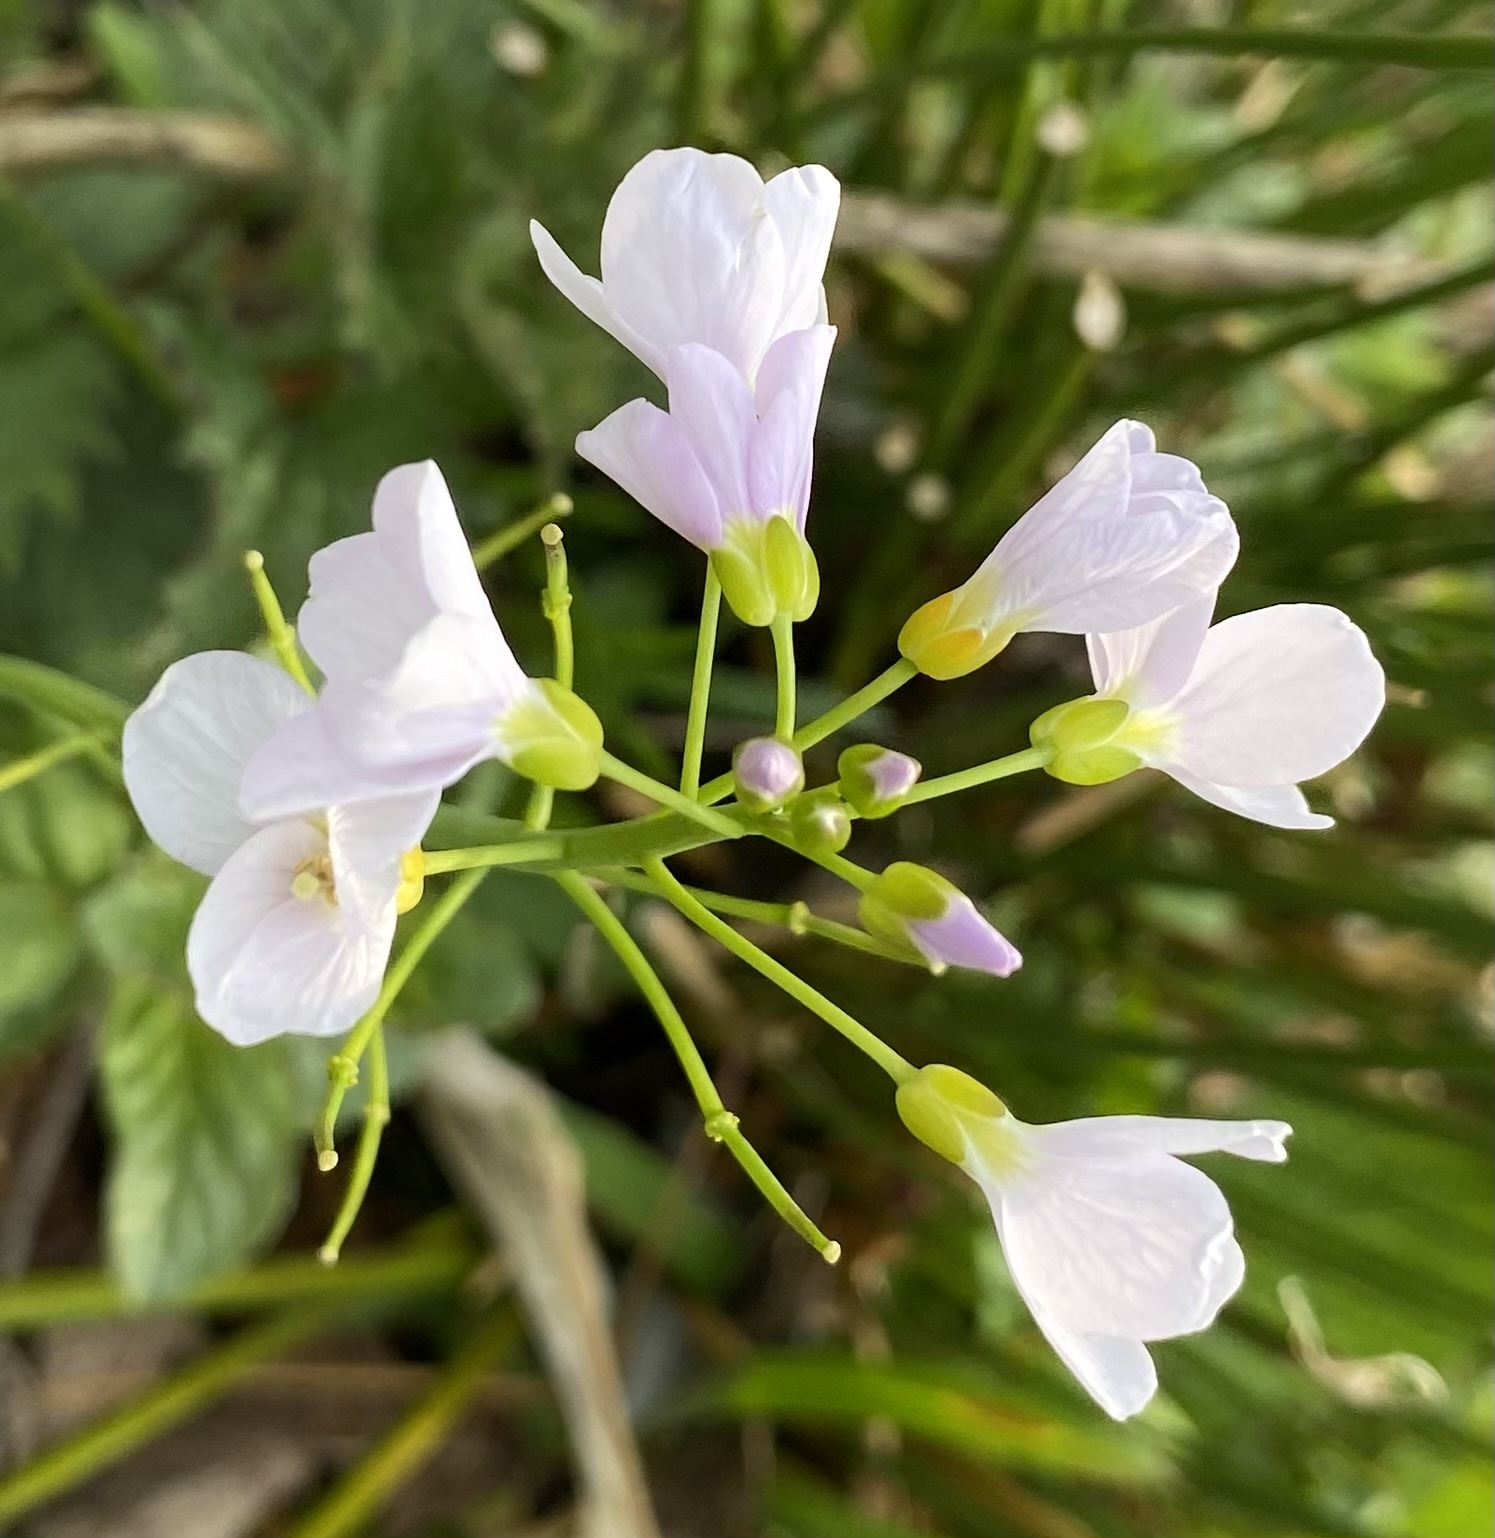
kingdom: Plantae
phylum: Tracheophyta
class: Magnoliopsida
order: Brassicales
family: Brassicaceae
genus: Cardamine
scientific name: Cardamine pratensis
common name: Cuckoo flower
